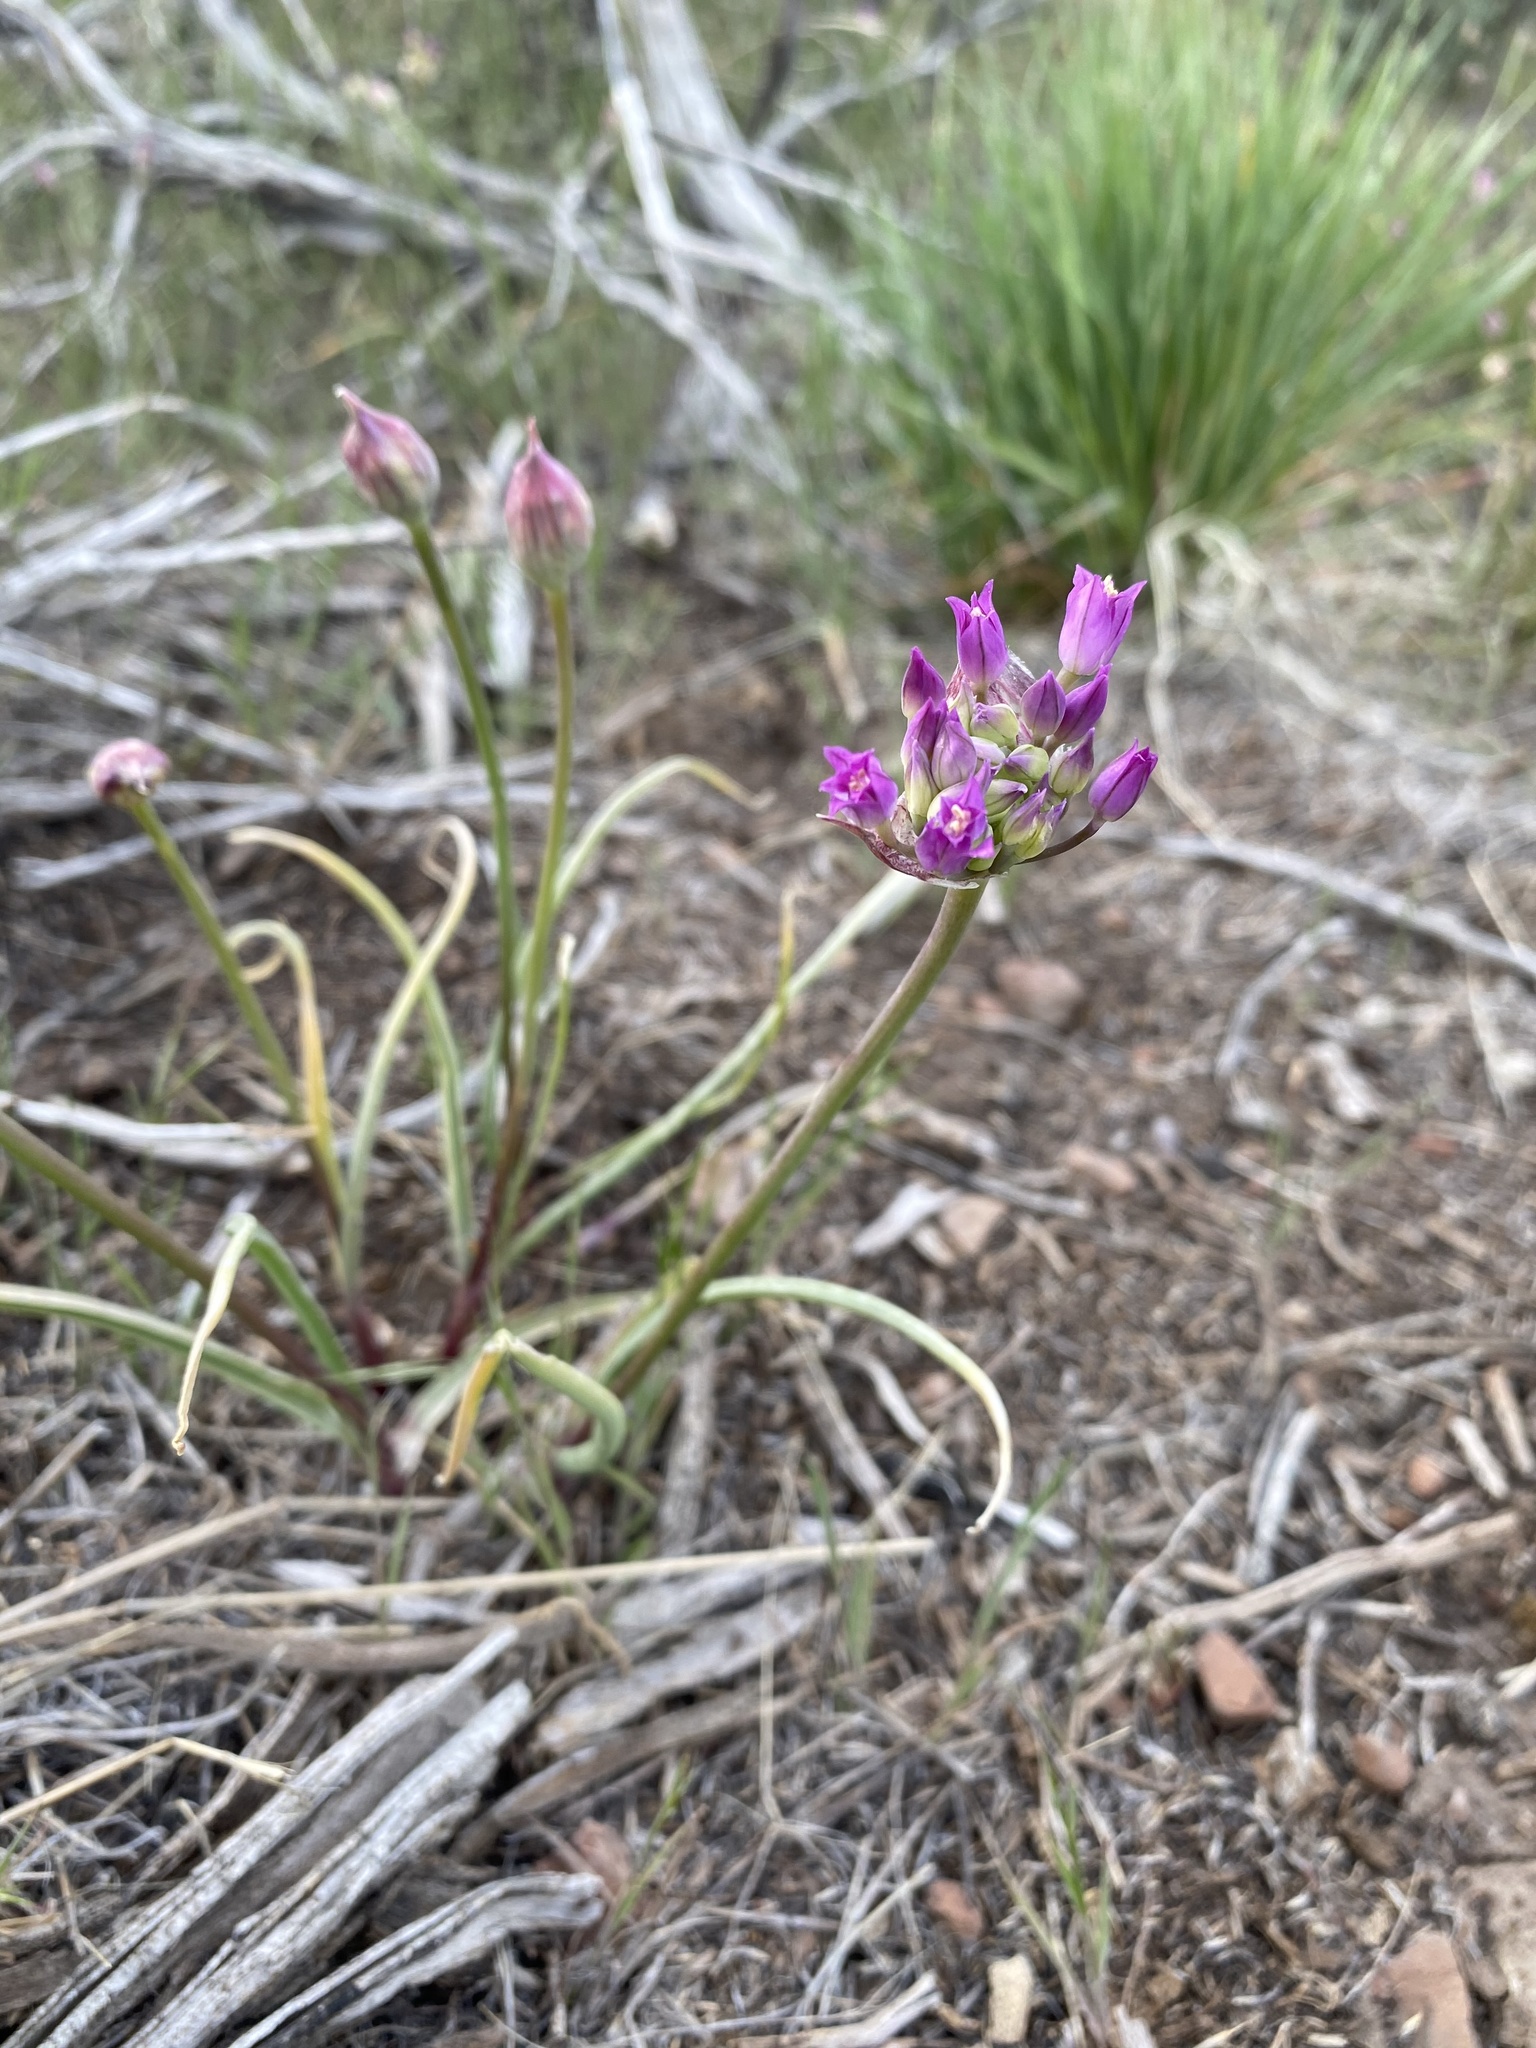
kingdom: Plantae
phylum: Tracheophyta
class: Liliopsida
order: Asparagales
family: Amaryllidaceae
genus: Allium
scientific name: Allium acuminatum
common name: Hooker's onion
